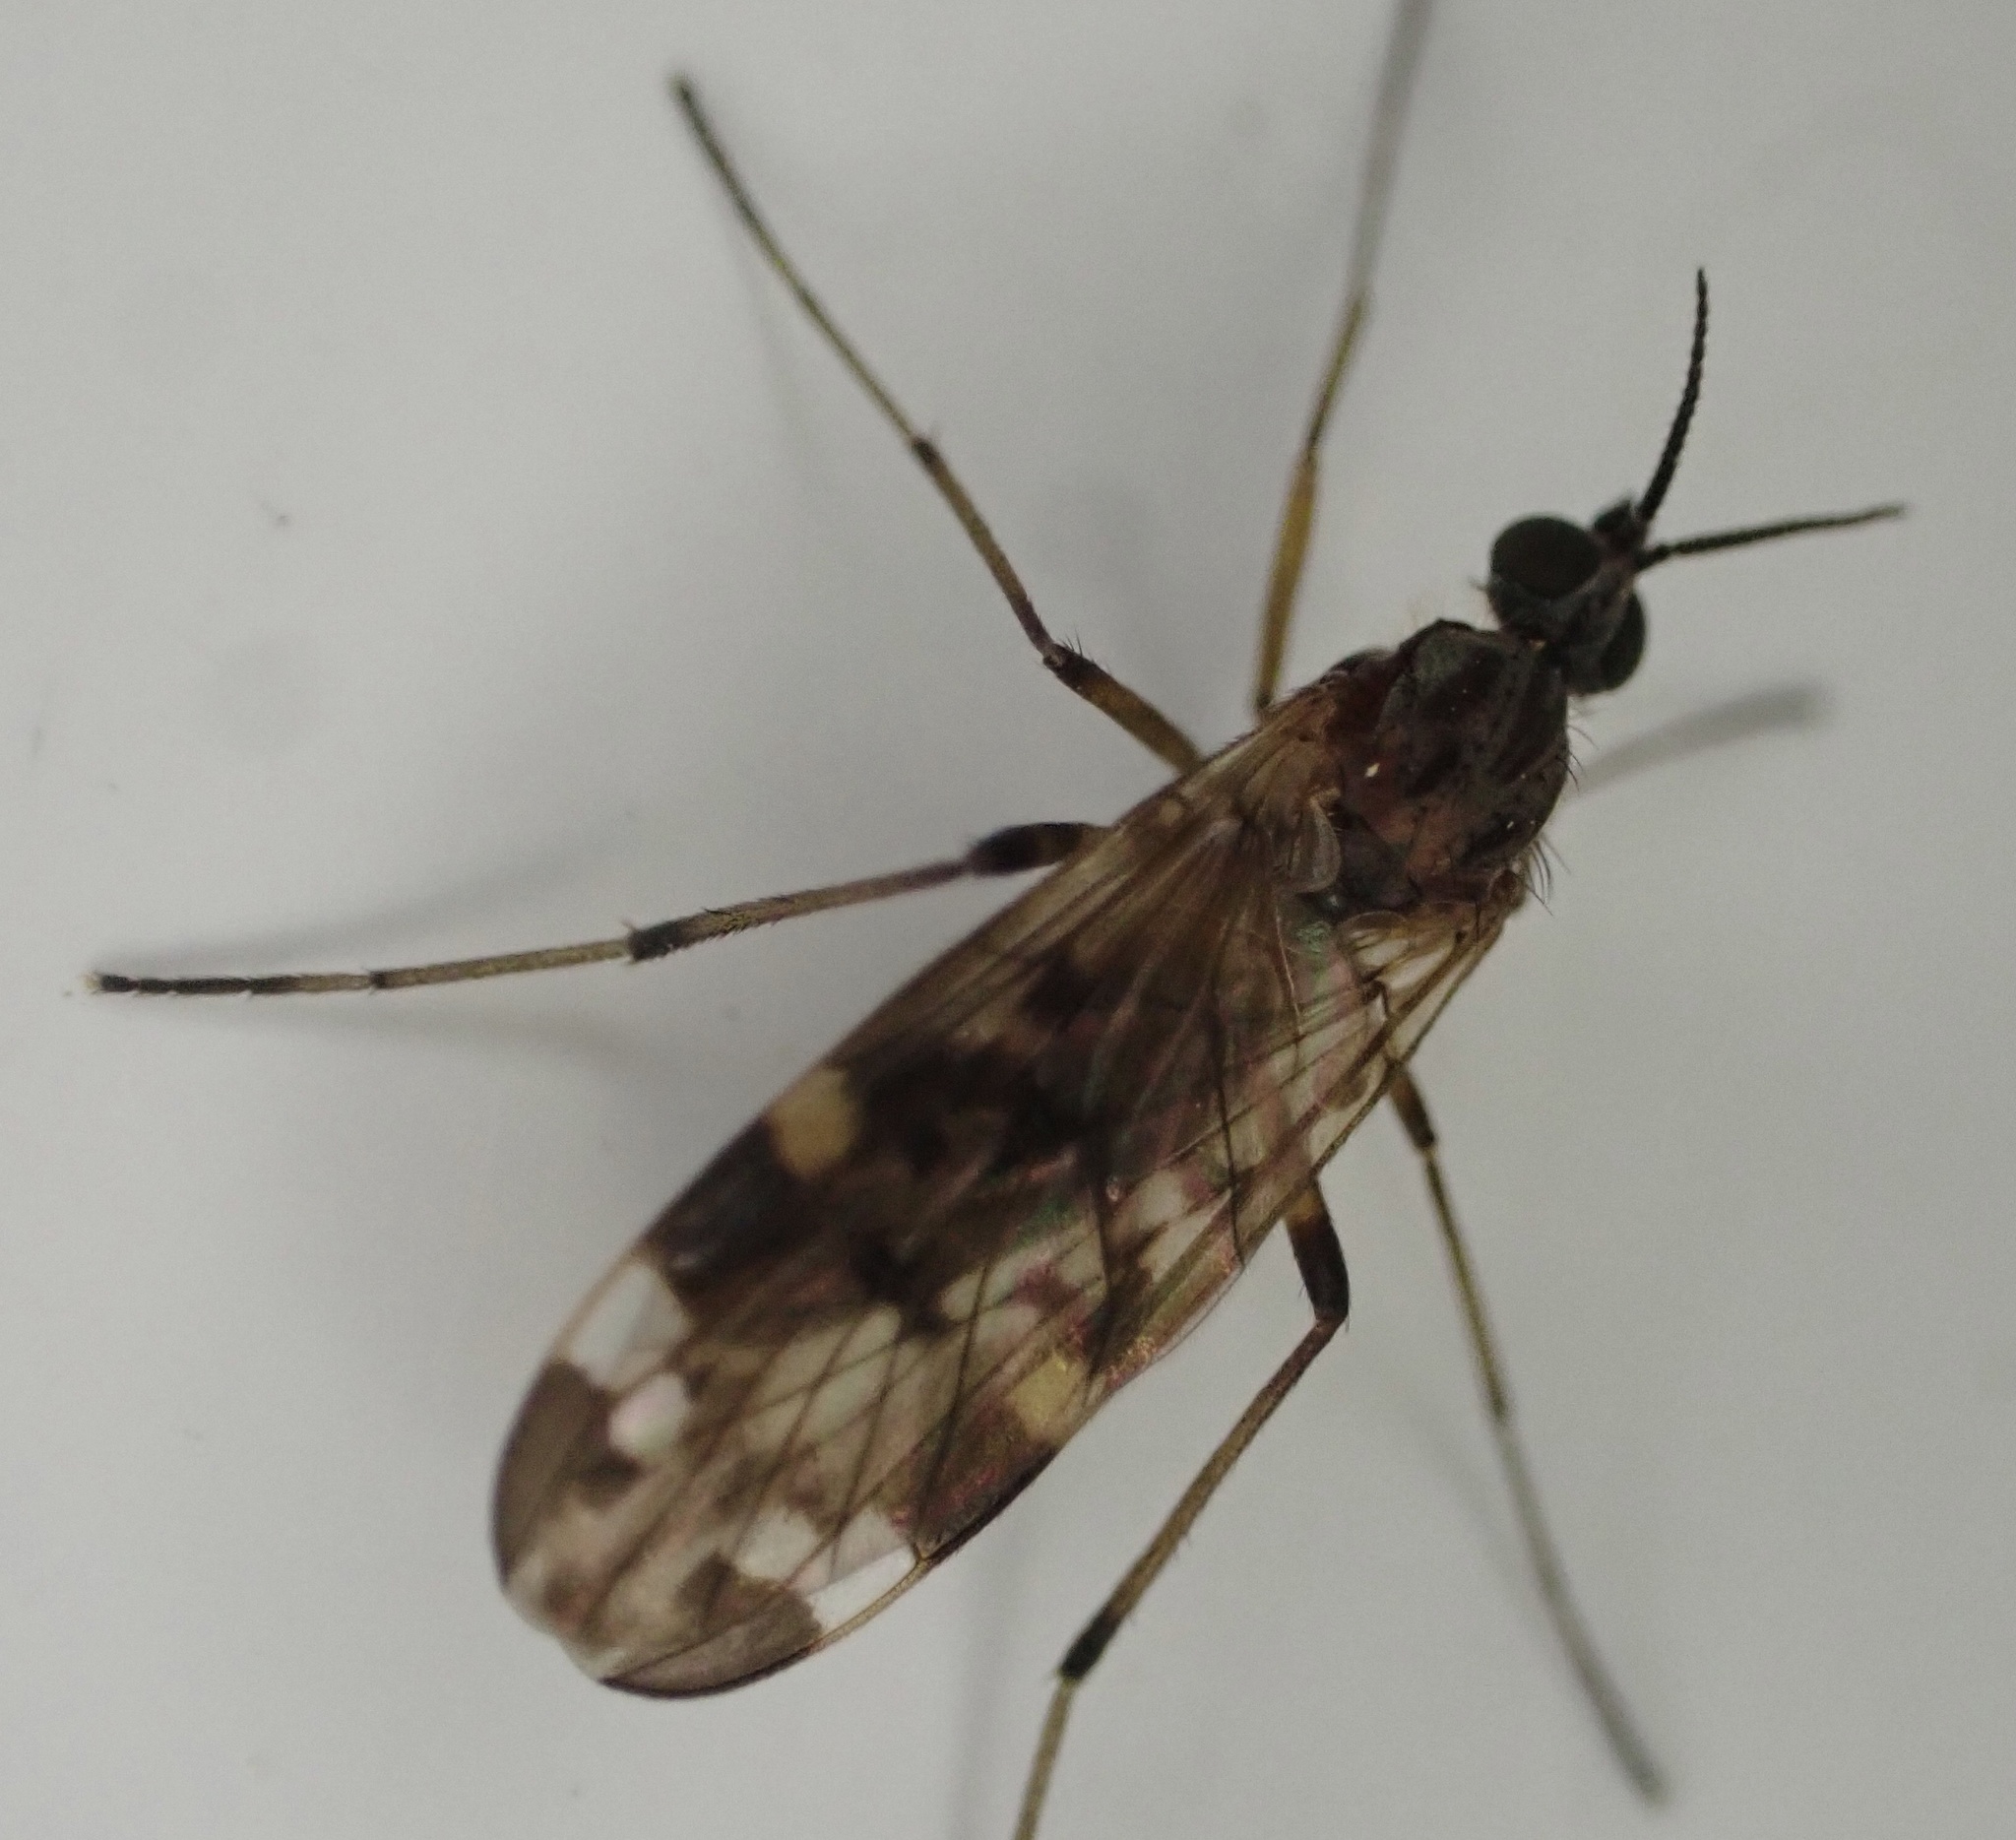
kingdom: Animalia
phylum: Arthropoda
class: Insecta
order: Diptera
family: Anisopodidae
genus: Sylvicola
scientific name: Sylvicola alternata
